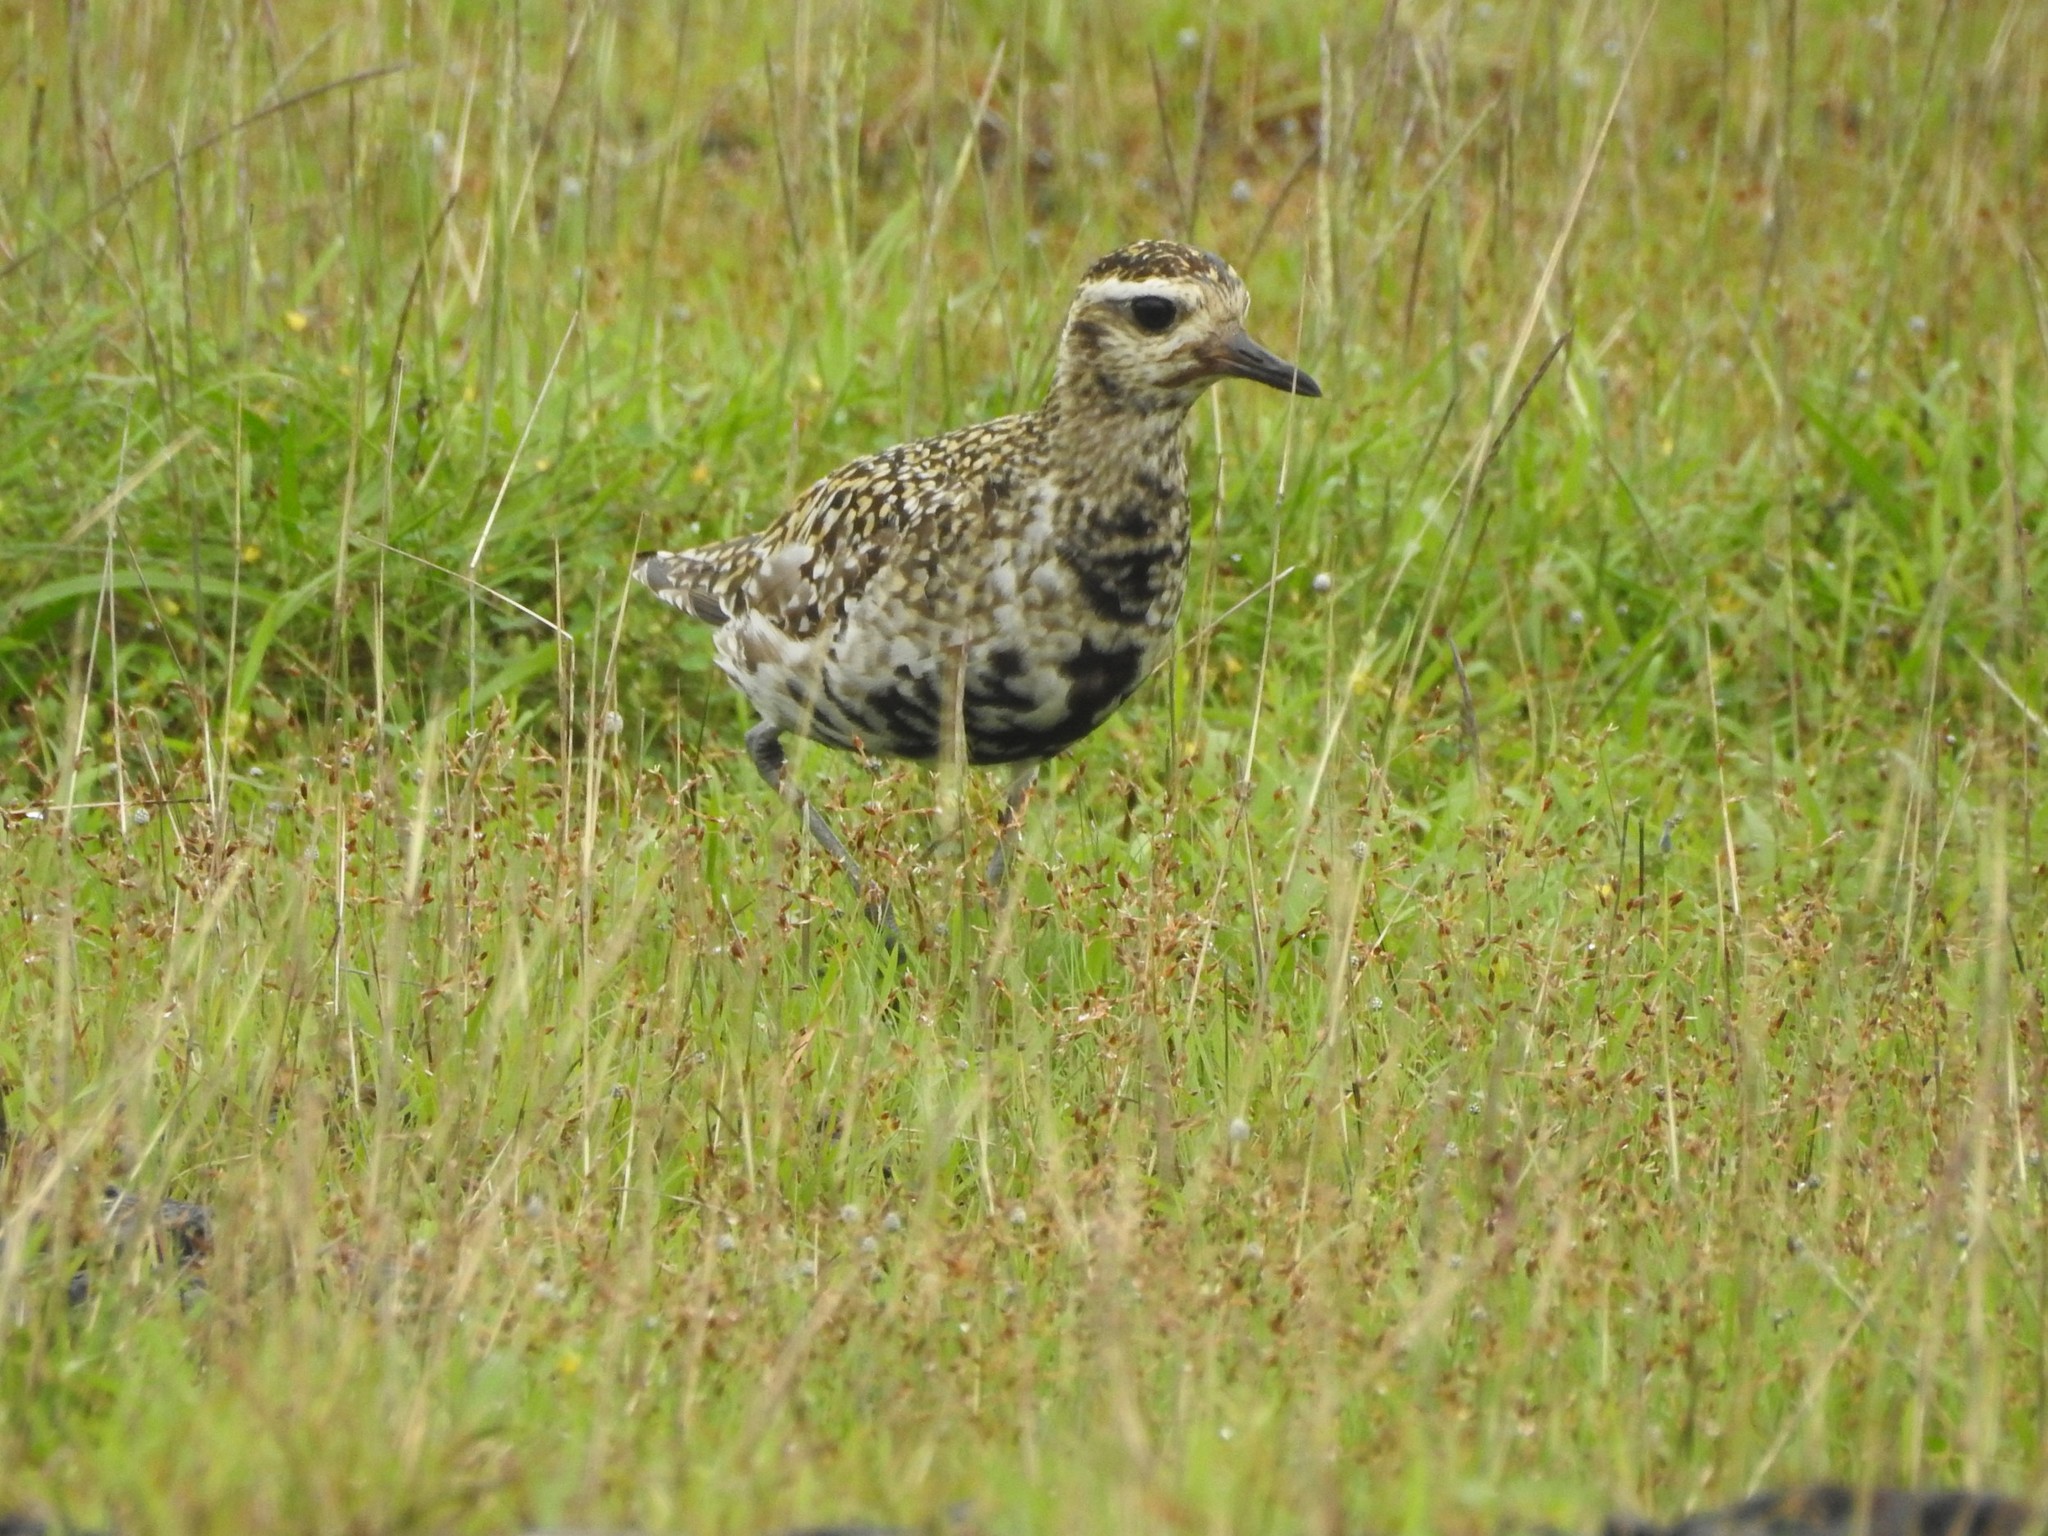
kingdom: Animalia
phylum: Chordata
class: Aves
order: Charadriiformes
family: Charadriidae
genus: Pluvialis
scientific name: Pluvialis fulva
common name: Pacific golden plover
